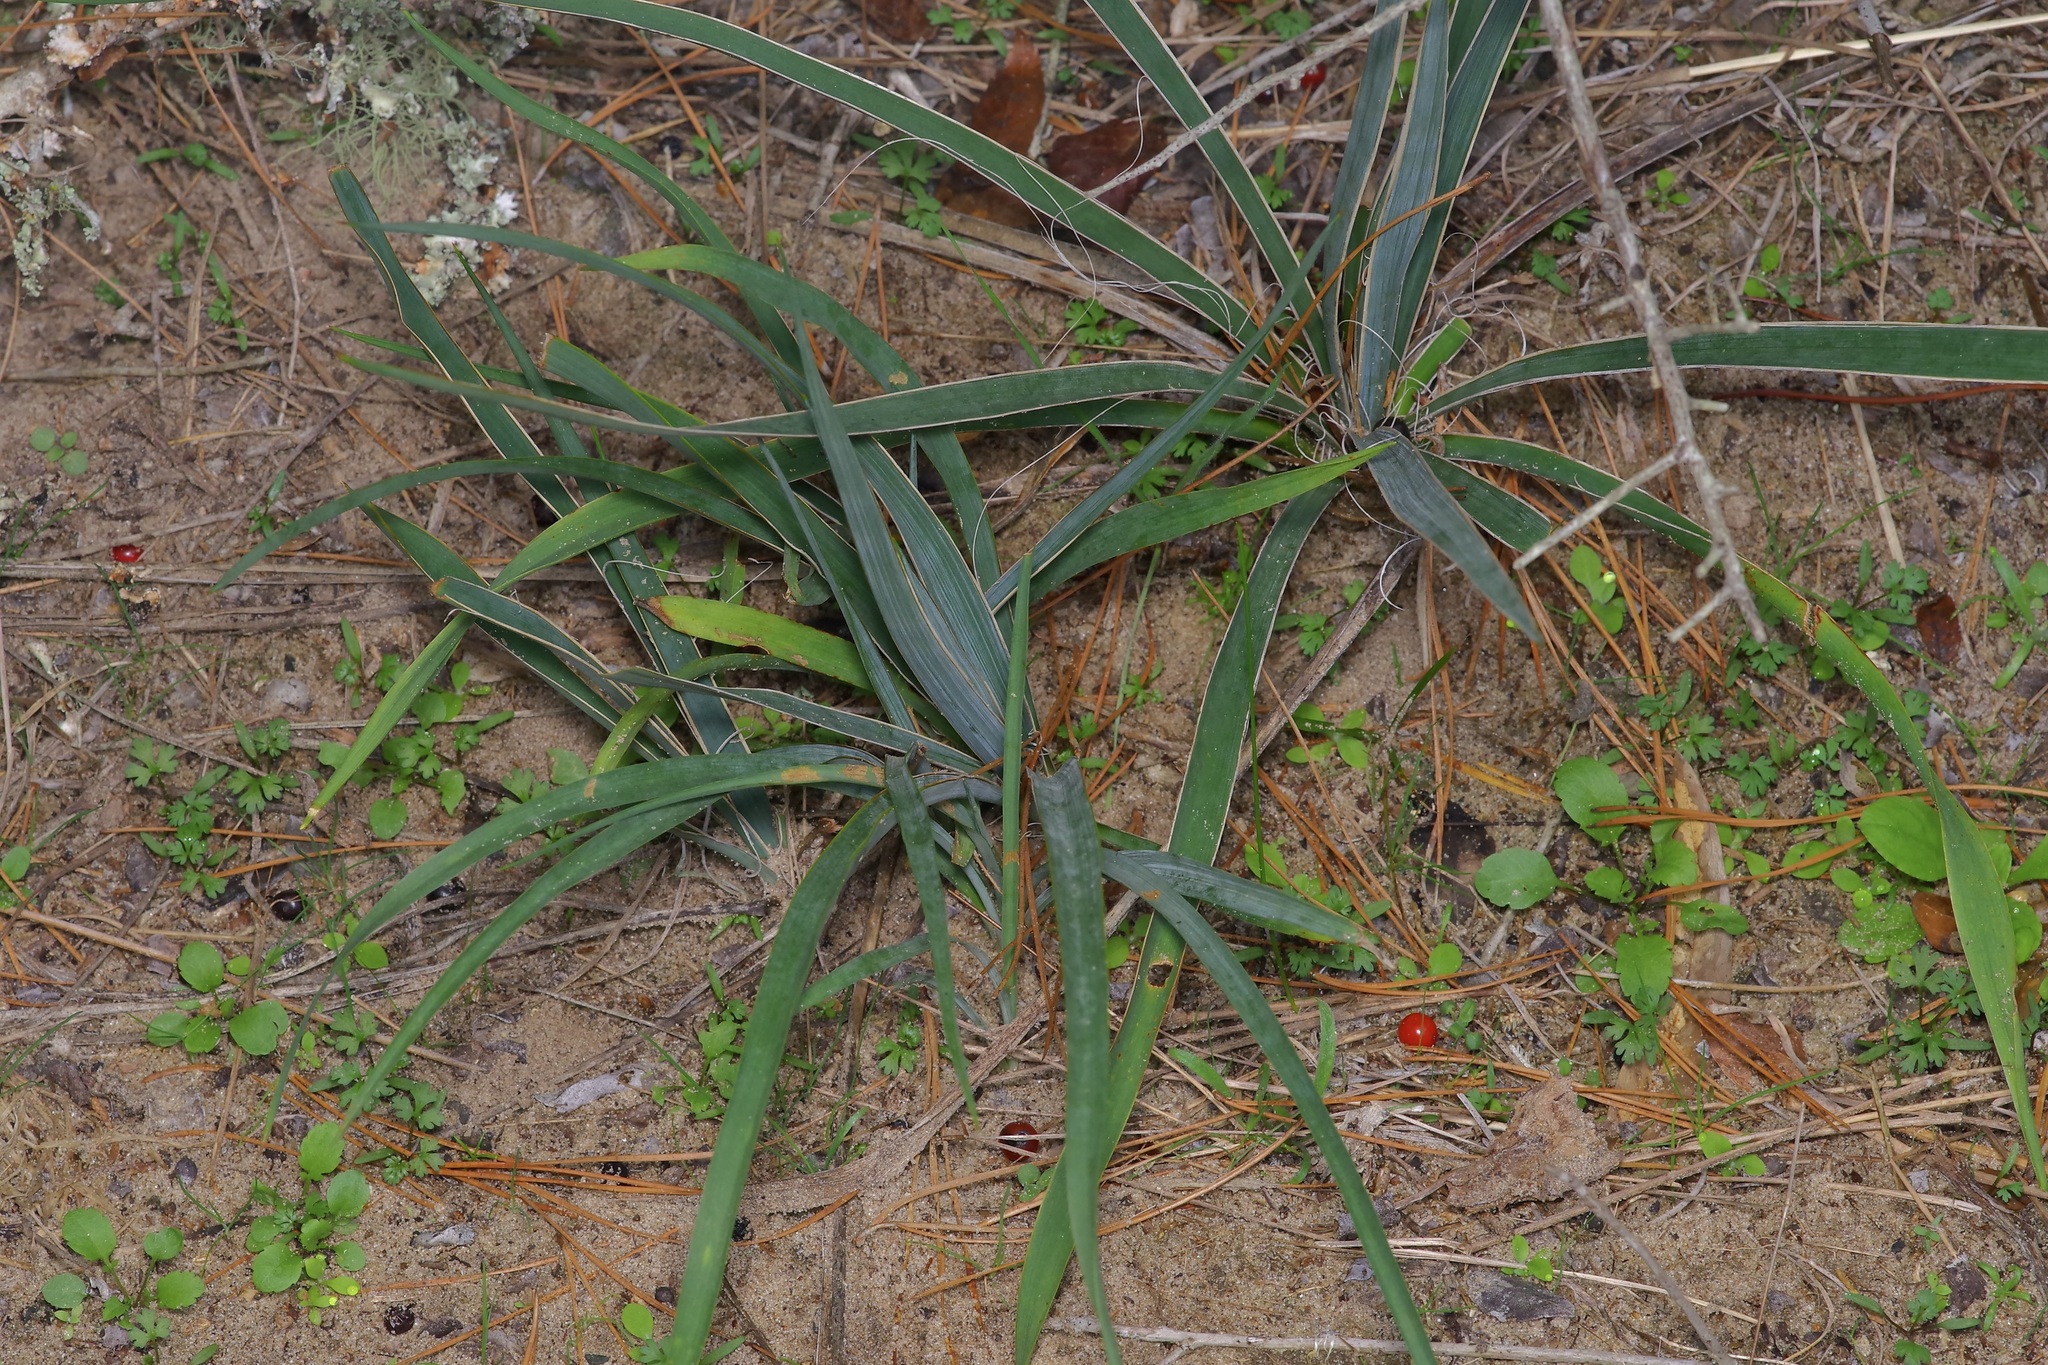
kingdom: Plantae
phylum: Tracheophyta
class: Liliopsida
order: Asparagales
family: Asparagaceae
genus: Yucca
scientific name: Yucca flaccida
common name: Adam's-needle
